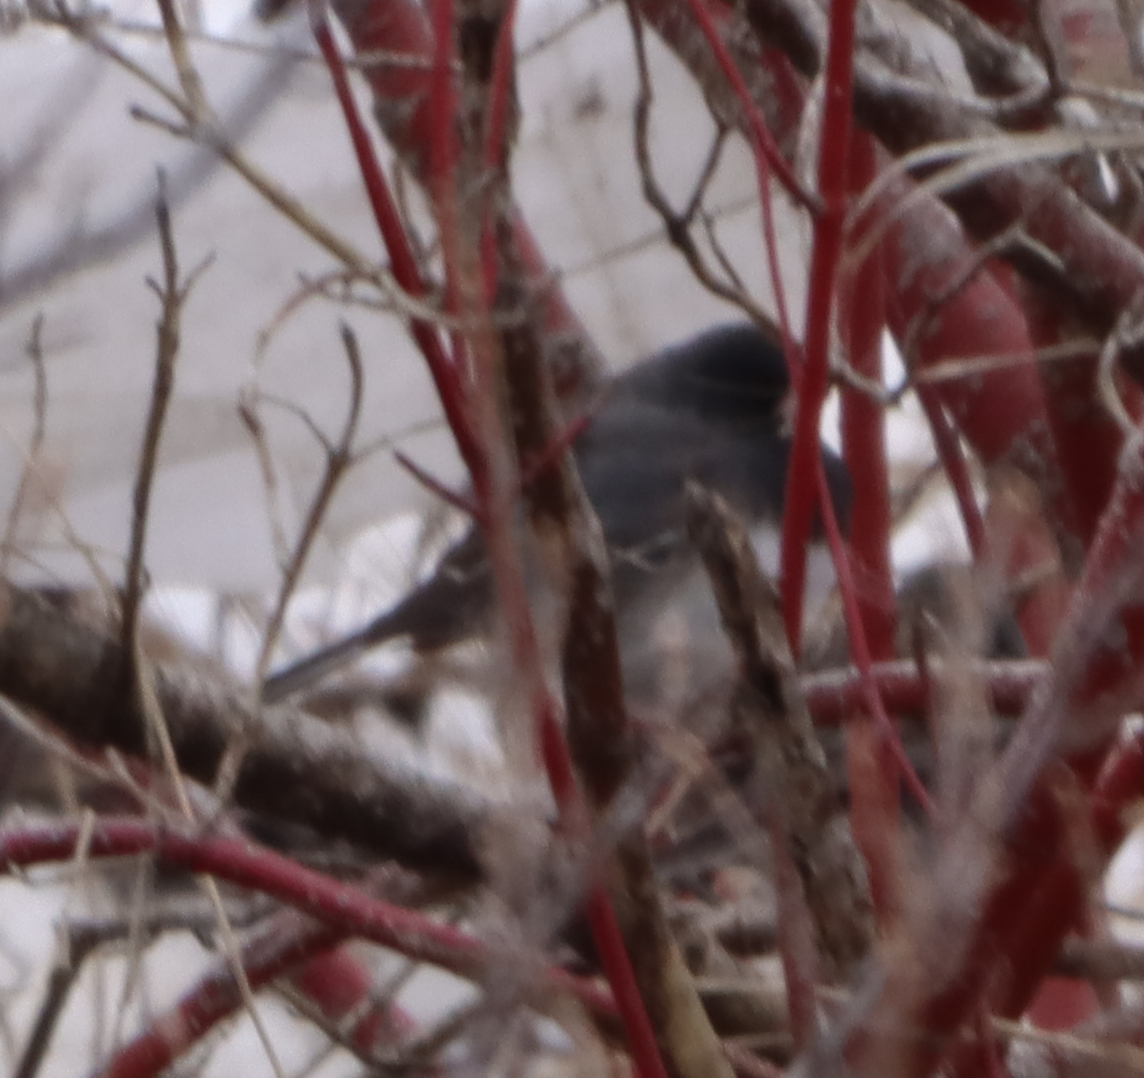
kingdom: Animalia
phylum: Chordata
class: Aves
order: Passeriformes
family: Passerellidae
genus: Junco
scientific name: Junco hyemalis
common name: Dark-eyed junco
